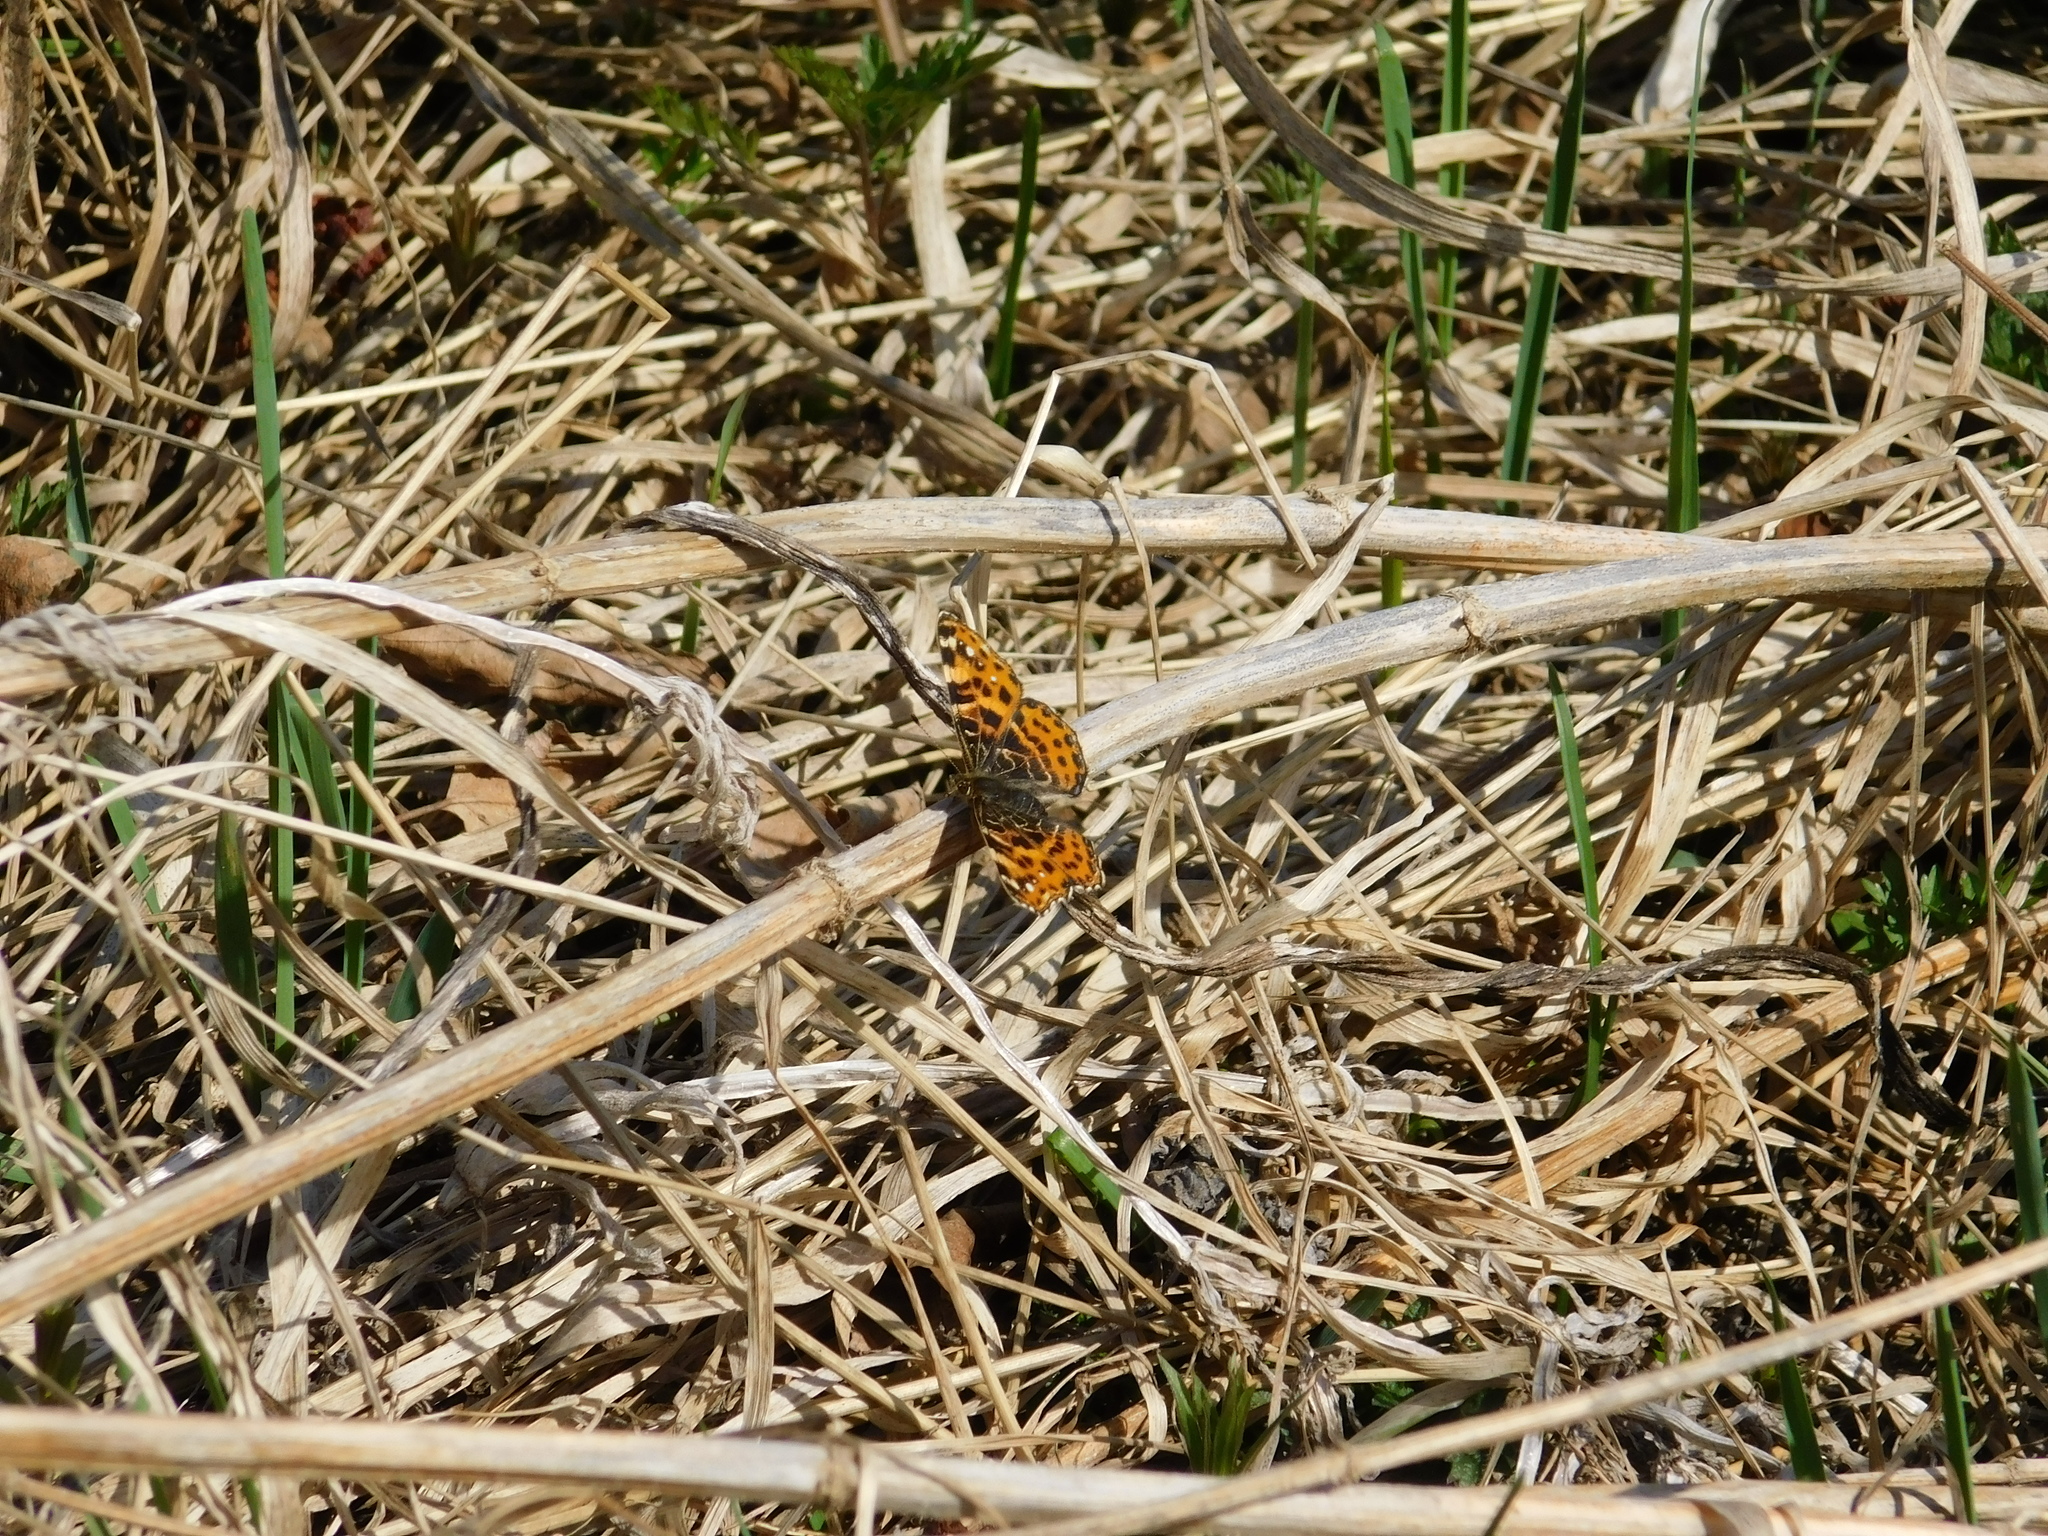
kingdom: Animalia
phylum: Arthropoda
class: Insecta
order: Lepidoptera
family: Nymphalidae
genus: Araschnia
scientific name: Araschnia levana
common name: Map butterfly
